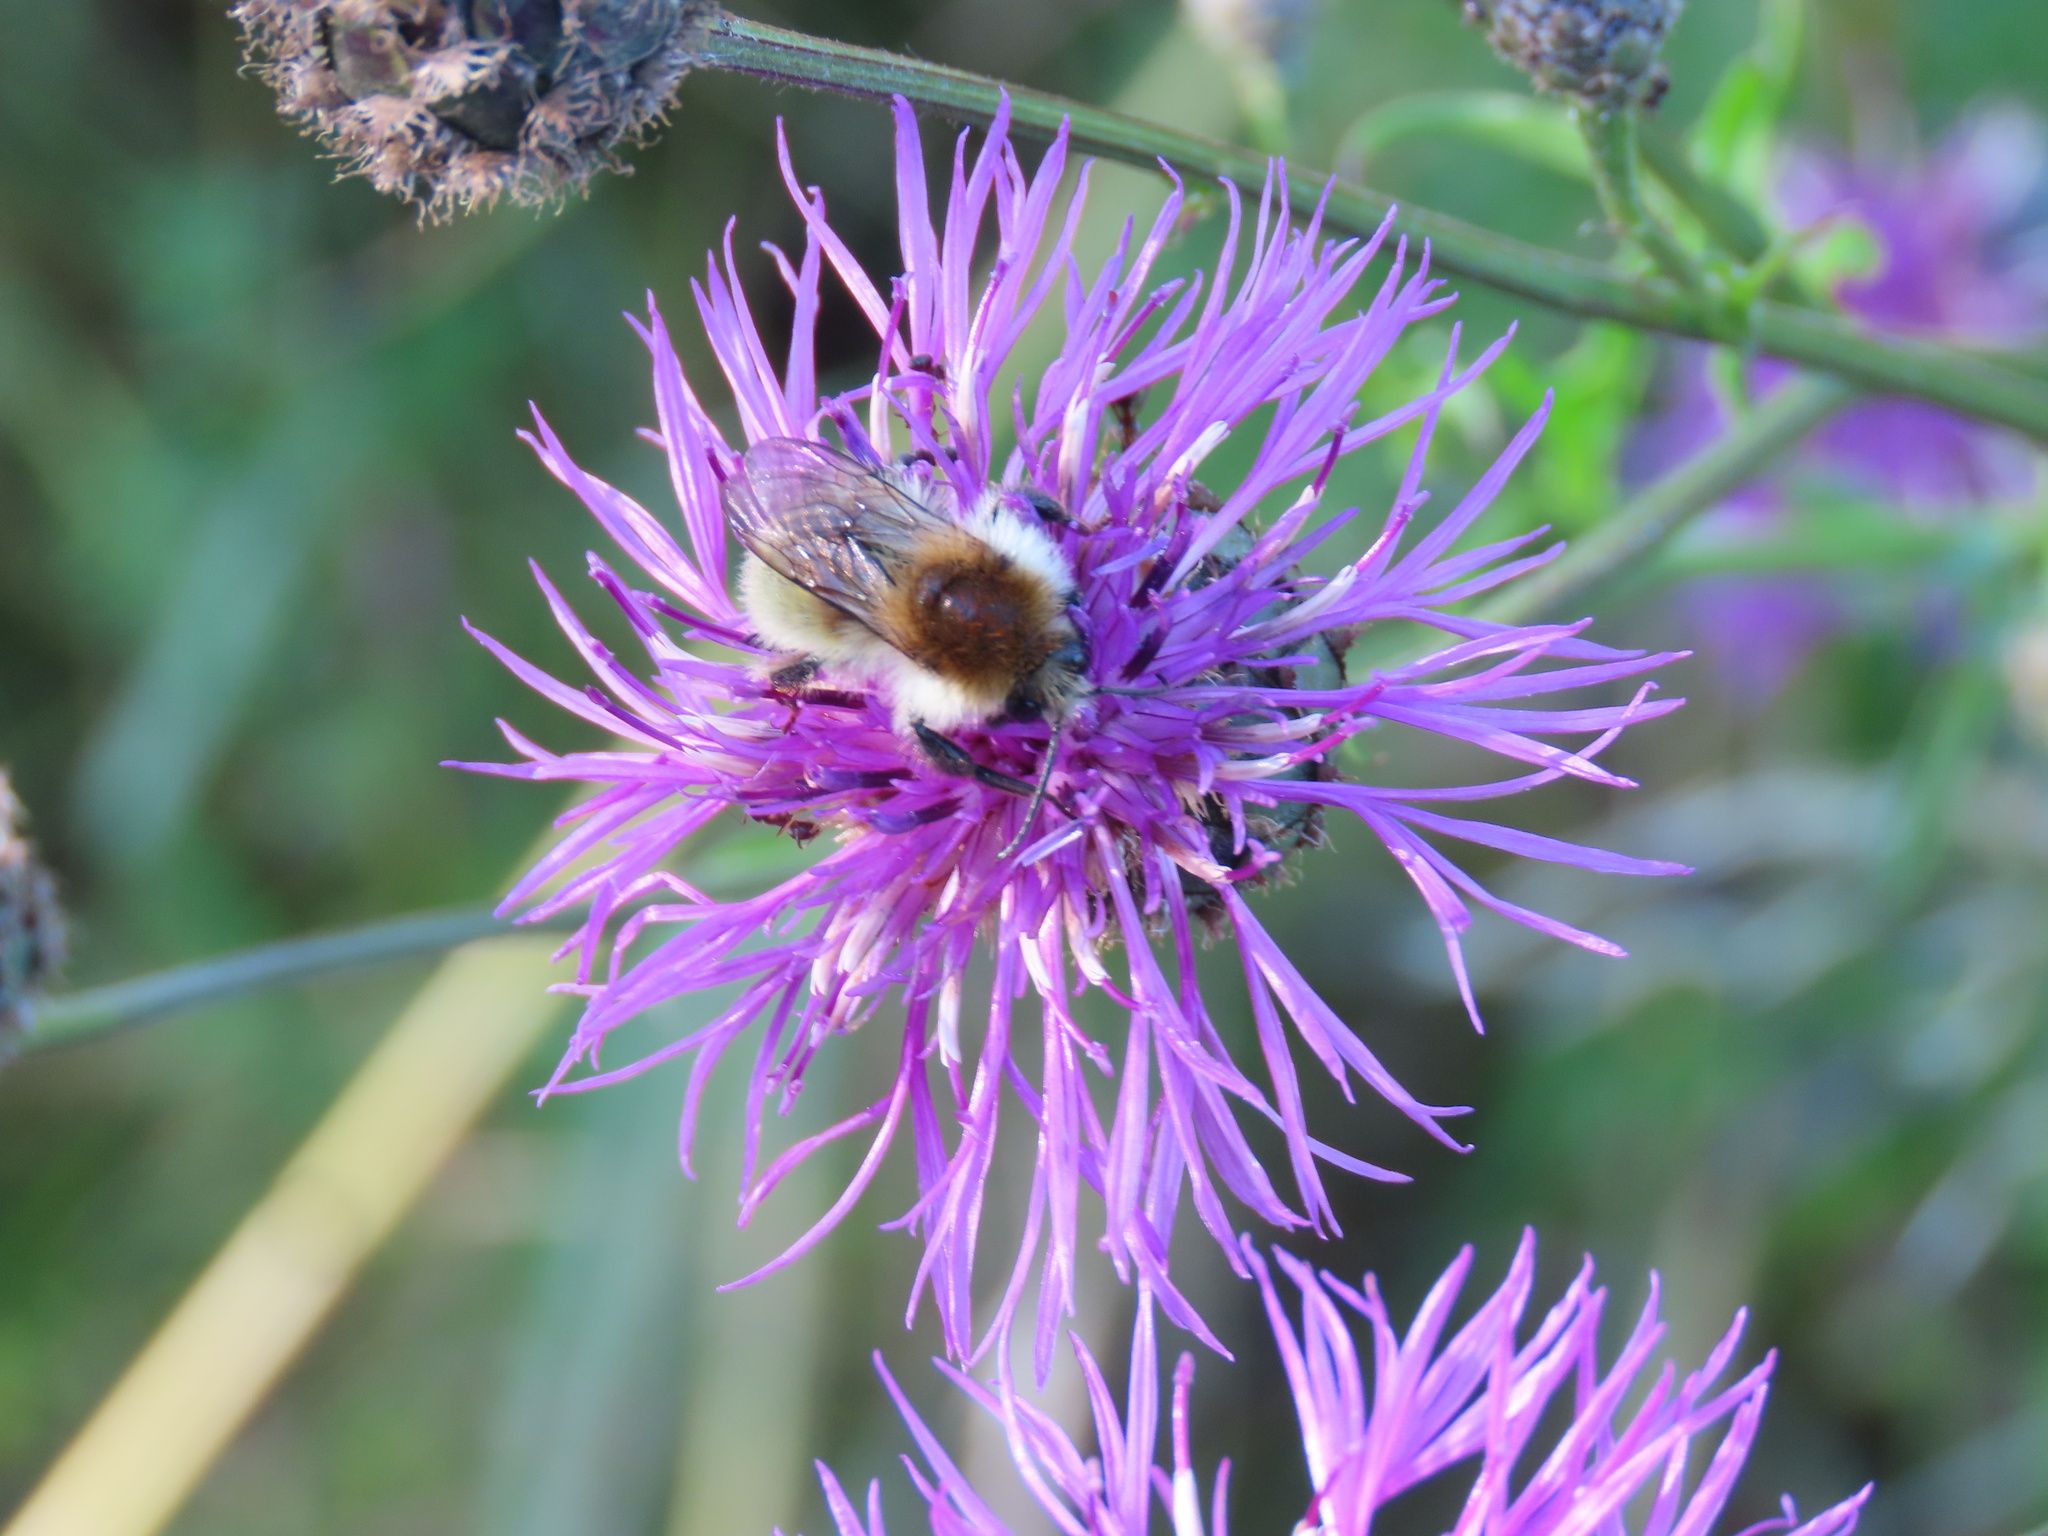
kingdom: Animalia
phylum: Arthropoda
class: Insecta
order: Hymenoptera
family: Apidae
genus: Bombus
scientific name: Bombus humilis
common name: Brown-banded carder-bee
